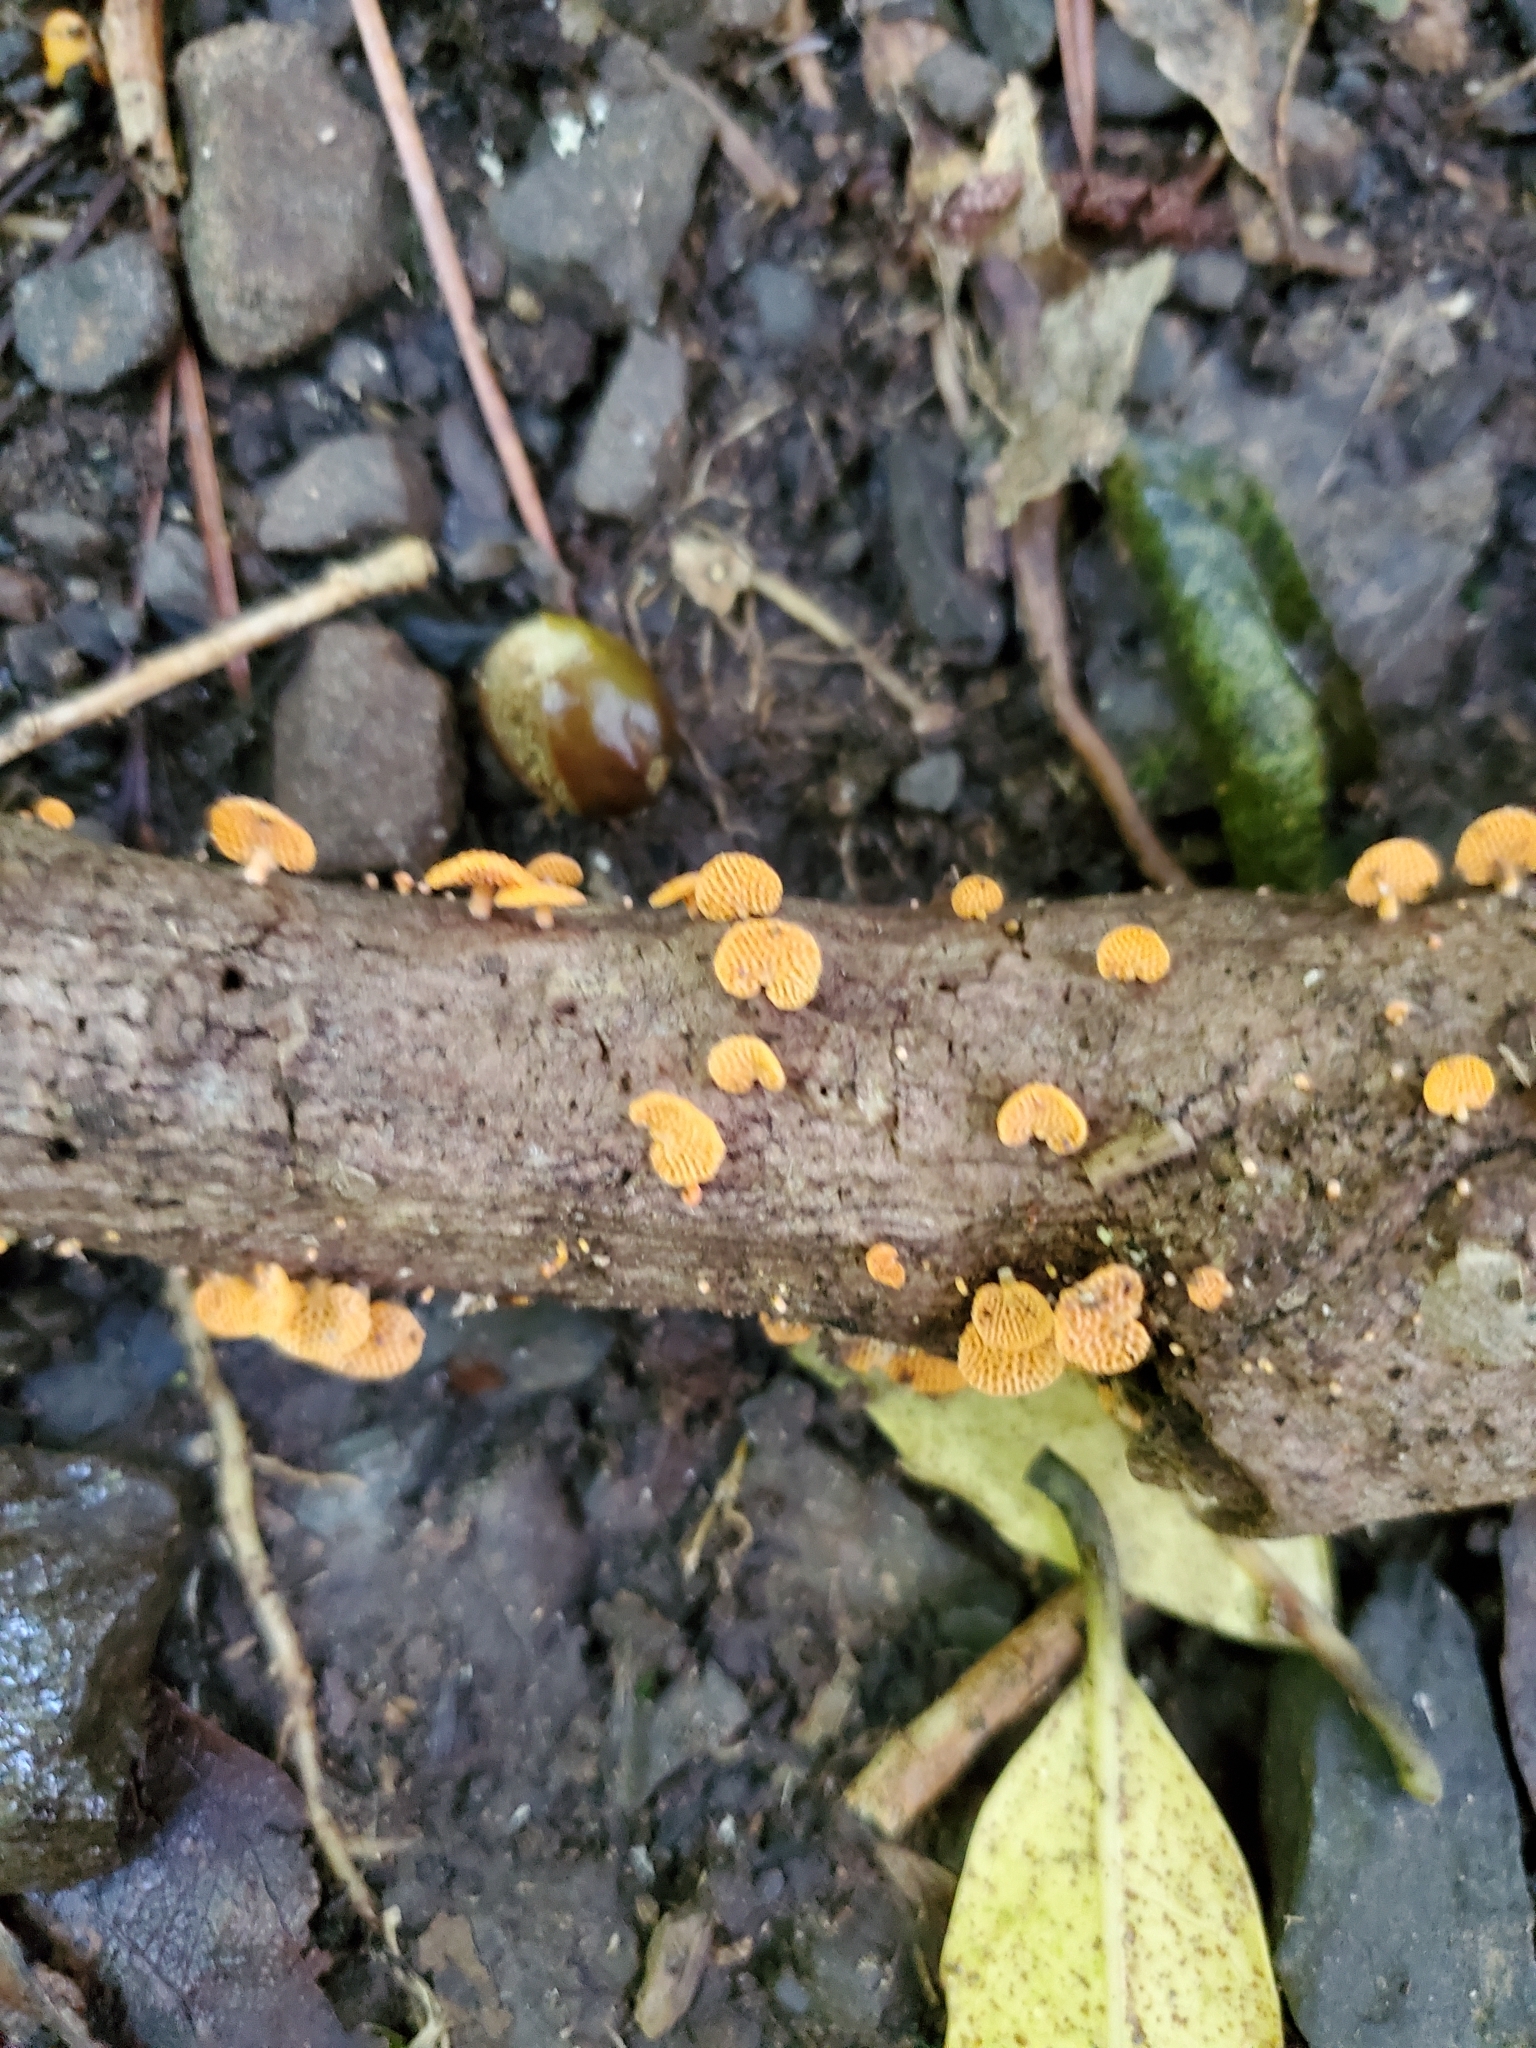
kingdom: Fungi
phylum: Basidiomycota
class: Agaricomycetes
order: Agaricales
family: Mycenaceae
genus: Favolaschia
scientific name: Favolaschia claudopus
